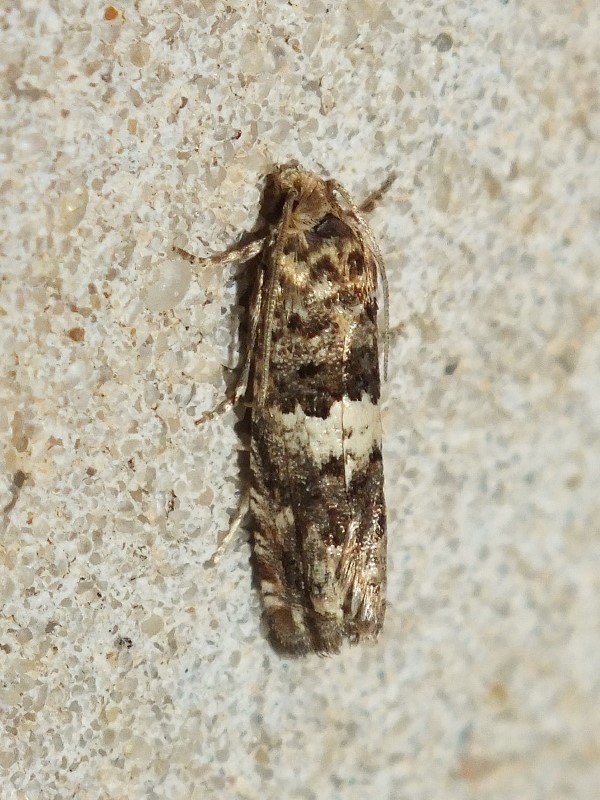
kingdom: Animalia
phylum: Arthropoda
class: Insecta
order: Lepidoptera
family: Tortricidae
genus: Epiblema
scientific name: Epiblema graphana
